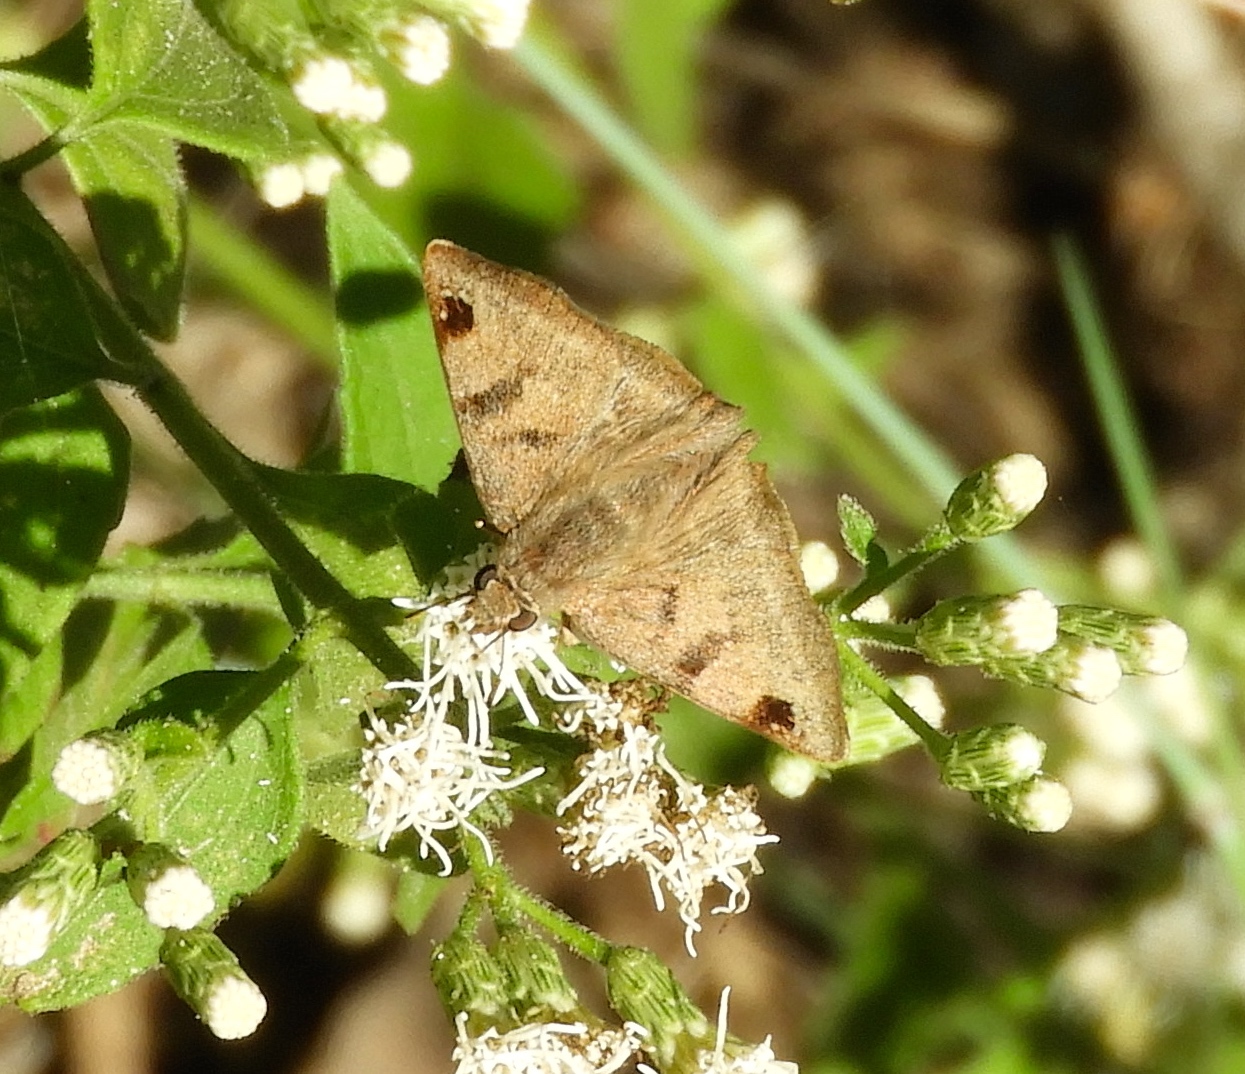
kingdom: Animalia
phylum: Arthropoda
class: Insecta
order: Lepidoptera
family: Hesperiidae
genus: Arteurotia
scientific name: Arteurotia tractipennis
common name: Starred skipper
